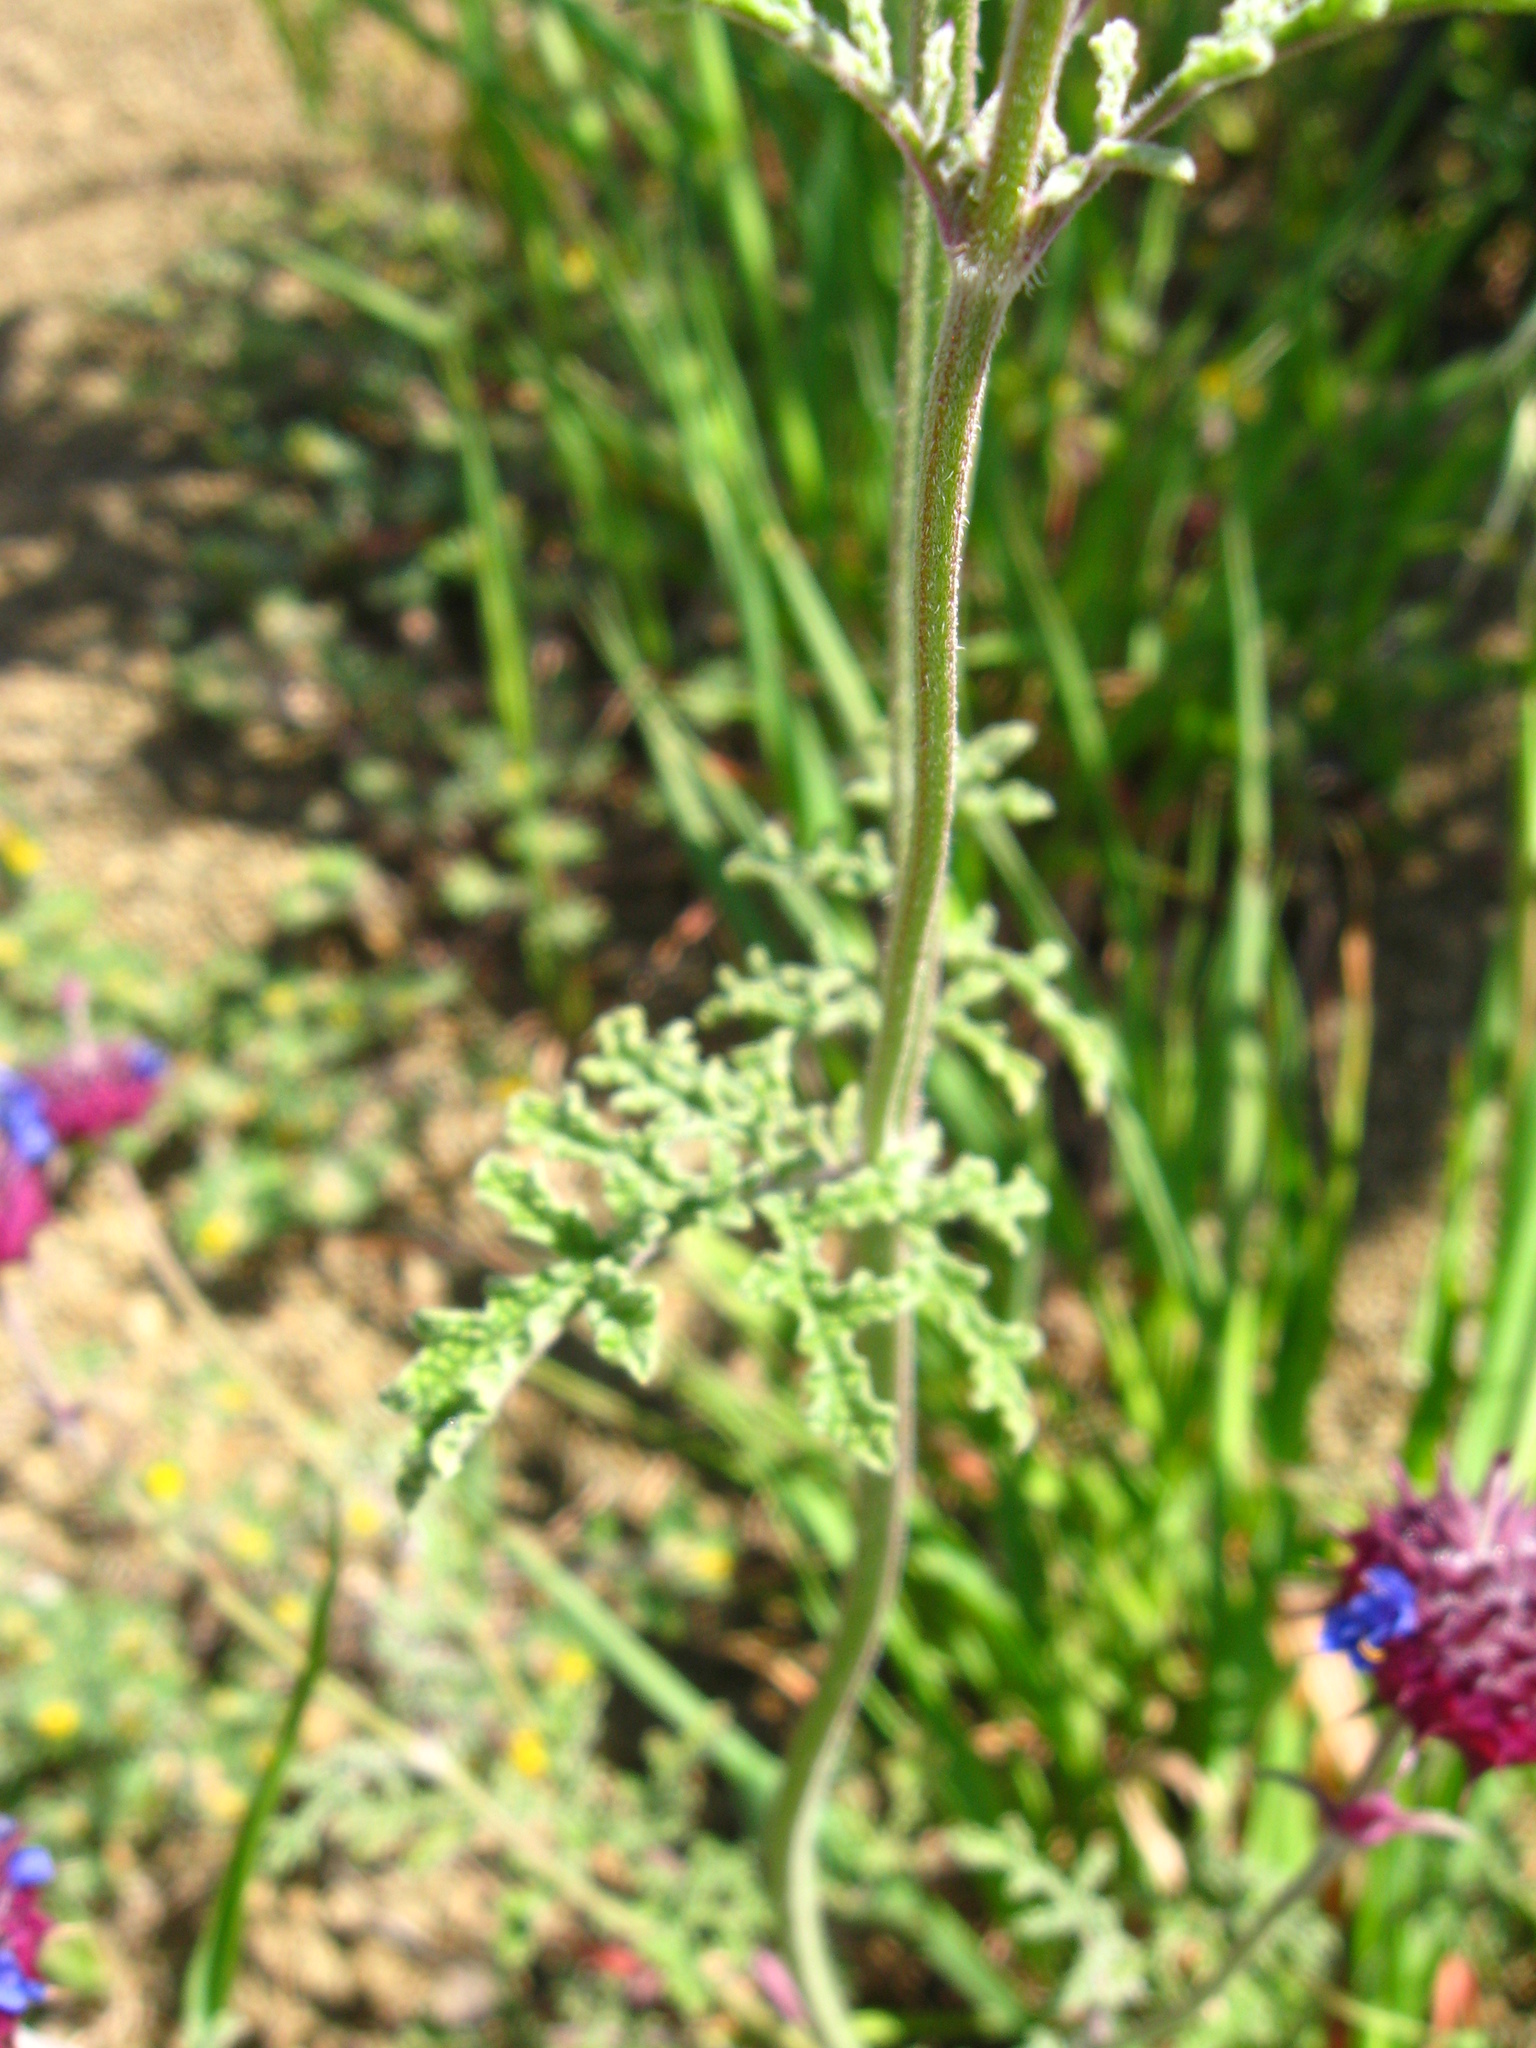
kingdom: Plantae
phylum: Tracheophyta
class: Magnoliopsida
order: Lamiales
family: Lamiaceae
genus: Salvia
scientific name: Salvia columbariae
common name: Chia
